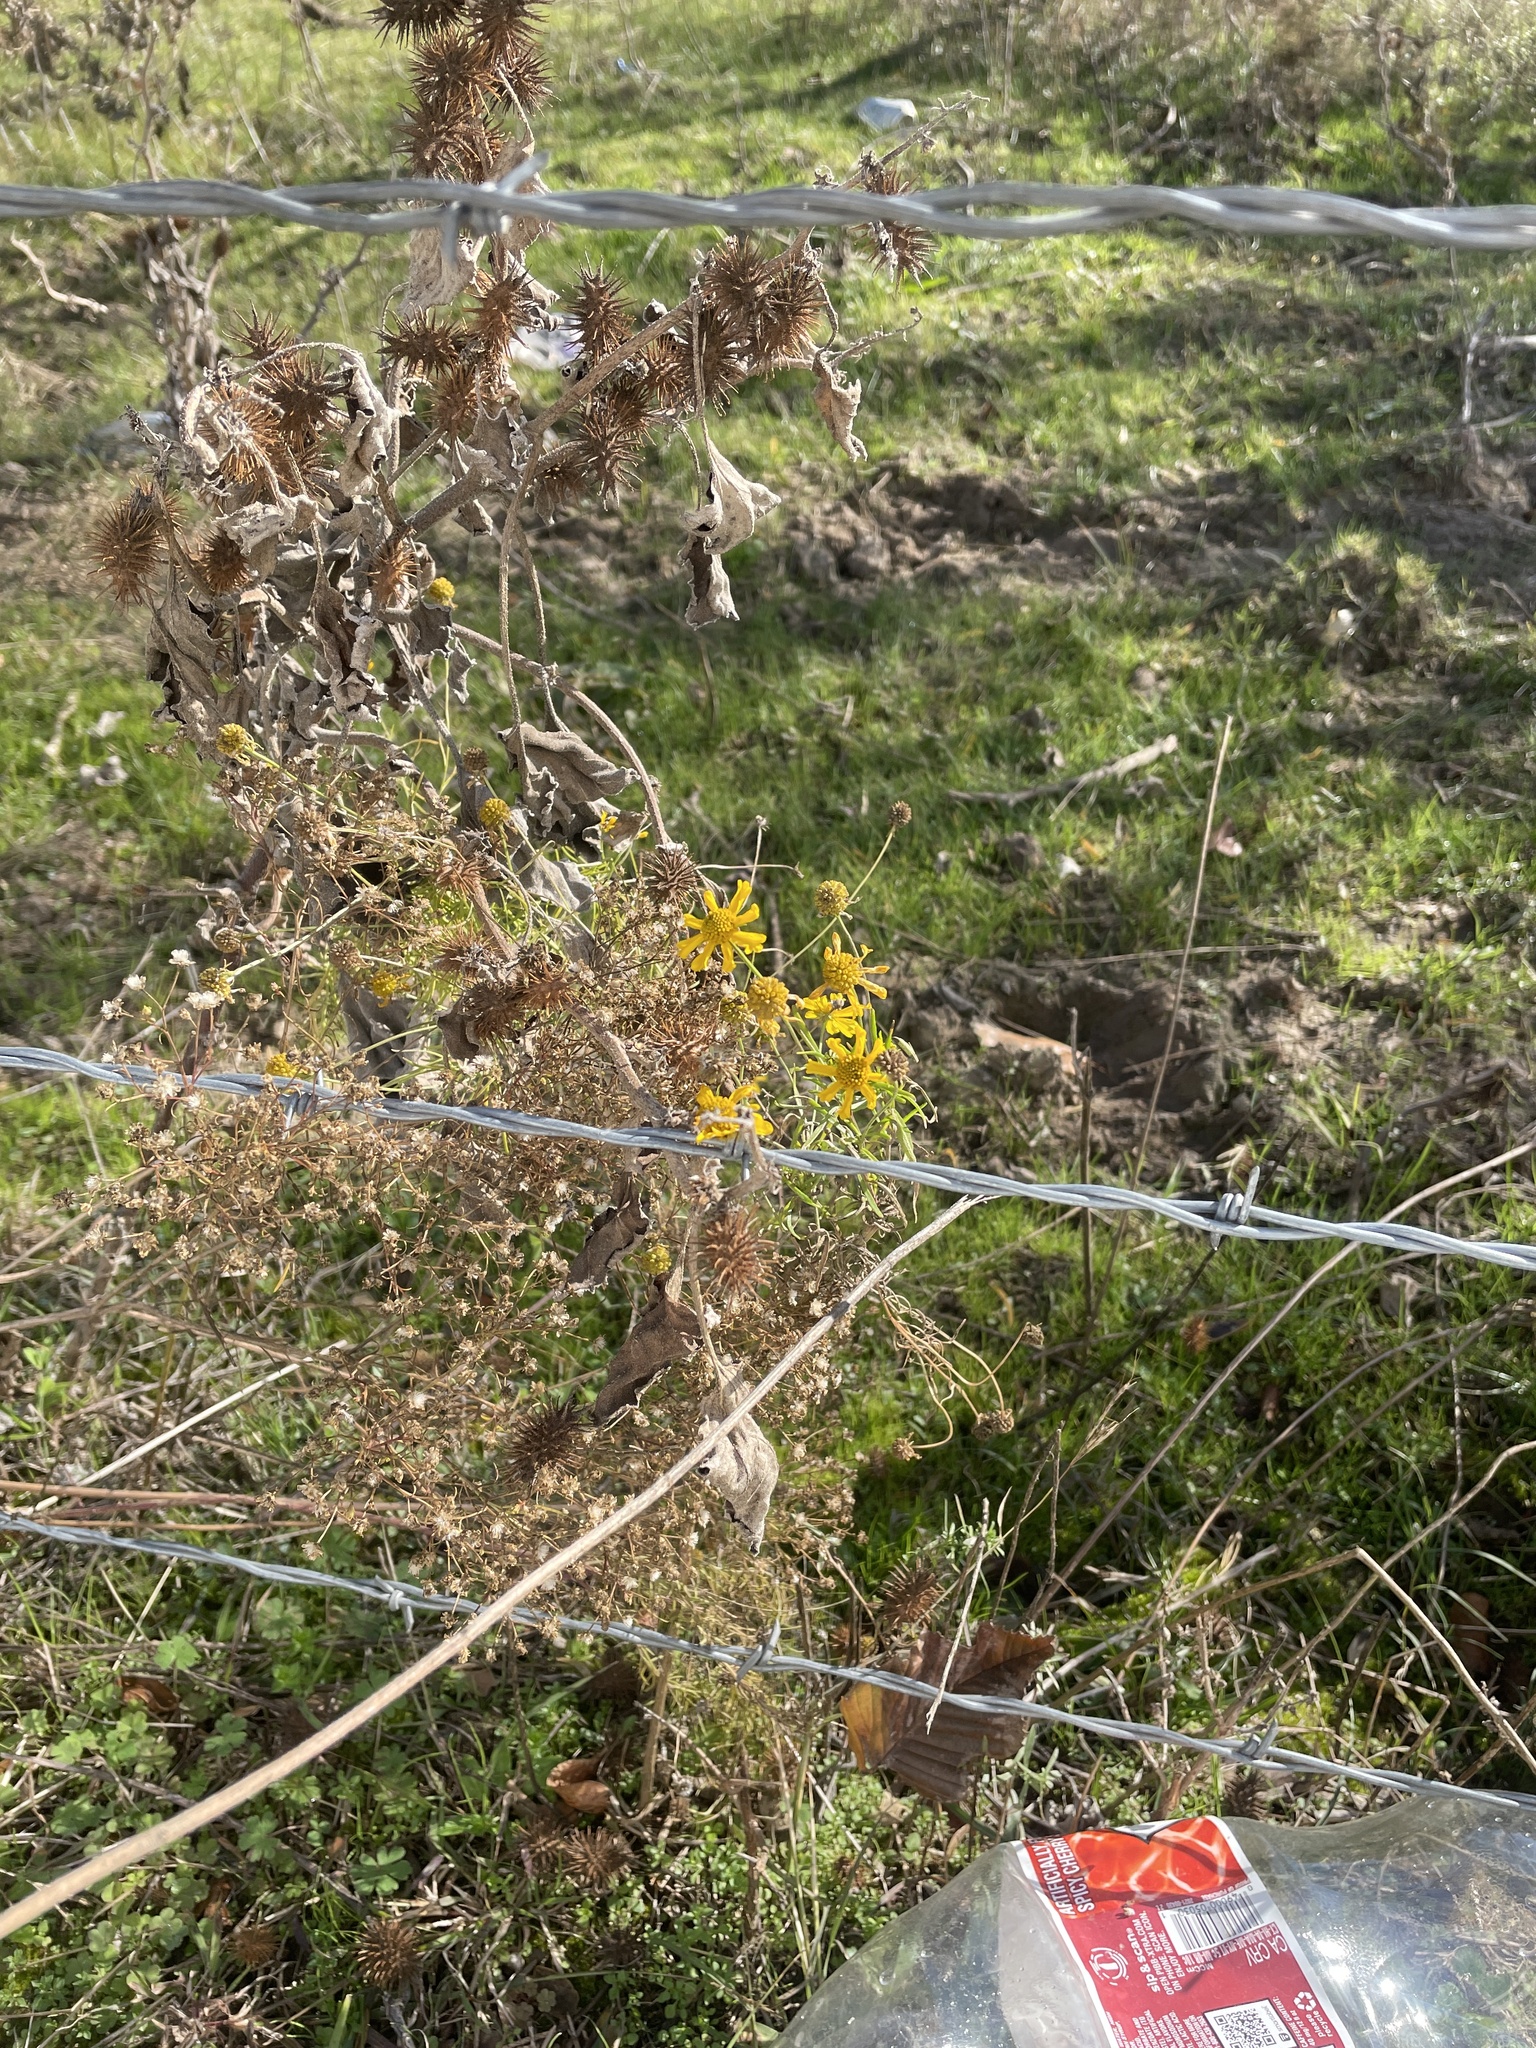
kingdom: Plantae
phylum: Tracheophyta
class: Magnoliopsida
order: Asterales
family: Asteraceae
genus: Helenium
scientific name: Helenium amarum
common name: Bitter sneezeweed
